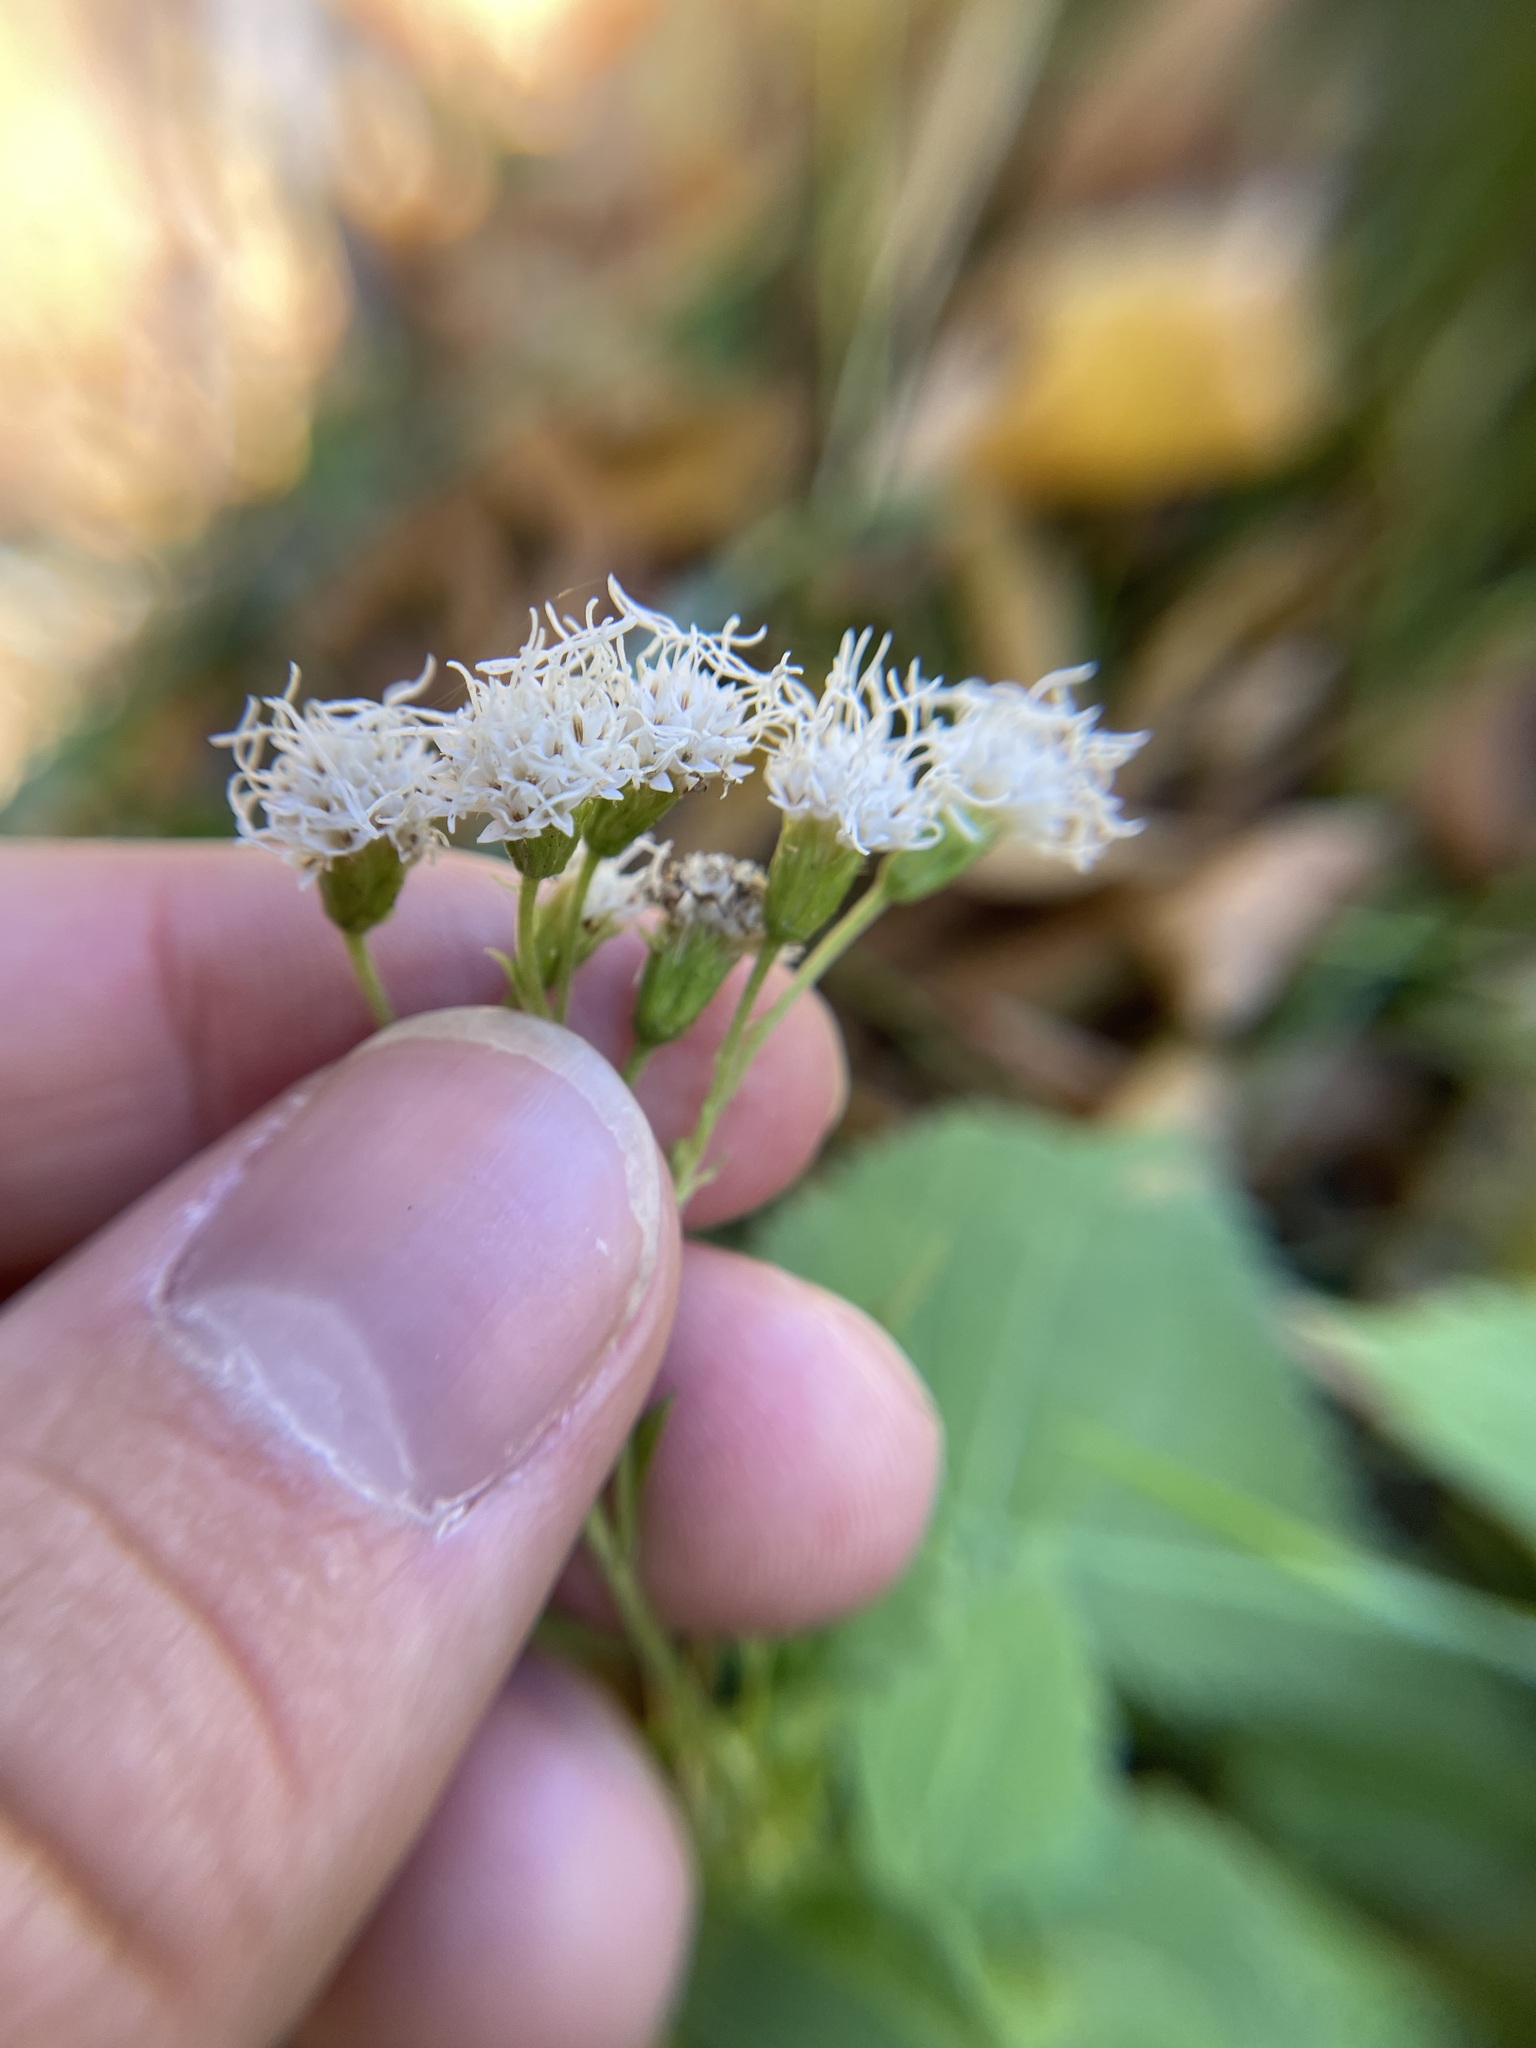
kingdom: Plantae
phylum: Tracheophyta
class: Magnoliopsida
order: Asterales
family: Asteraceae
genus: Ageratina
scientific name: Ageratina altissima
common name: White snakeroot
